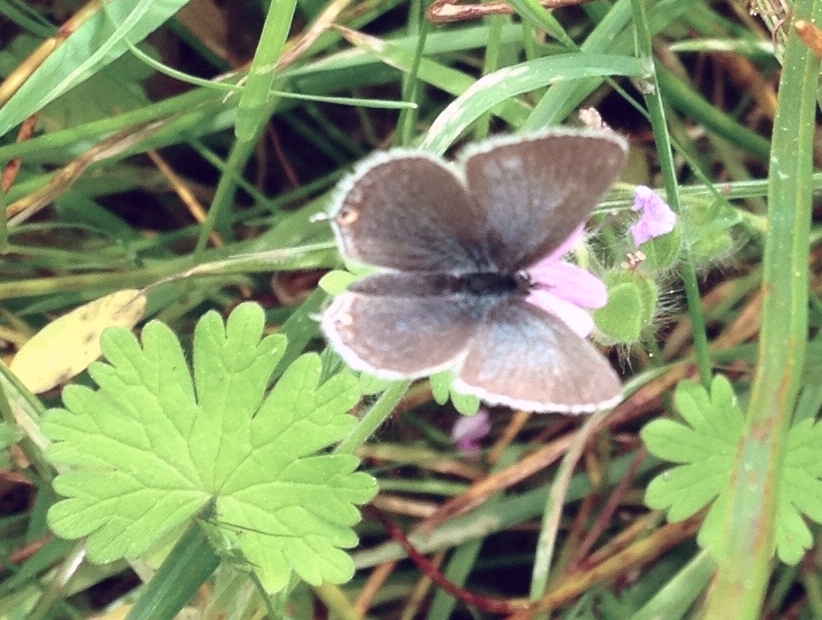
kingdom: Animalia
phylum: Arthropoda
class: Insecta
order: Lepidoptera
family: Papilionidae
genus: Battus
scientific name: Battus philenor
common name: Pipevine swallowtail
